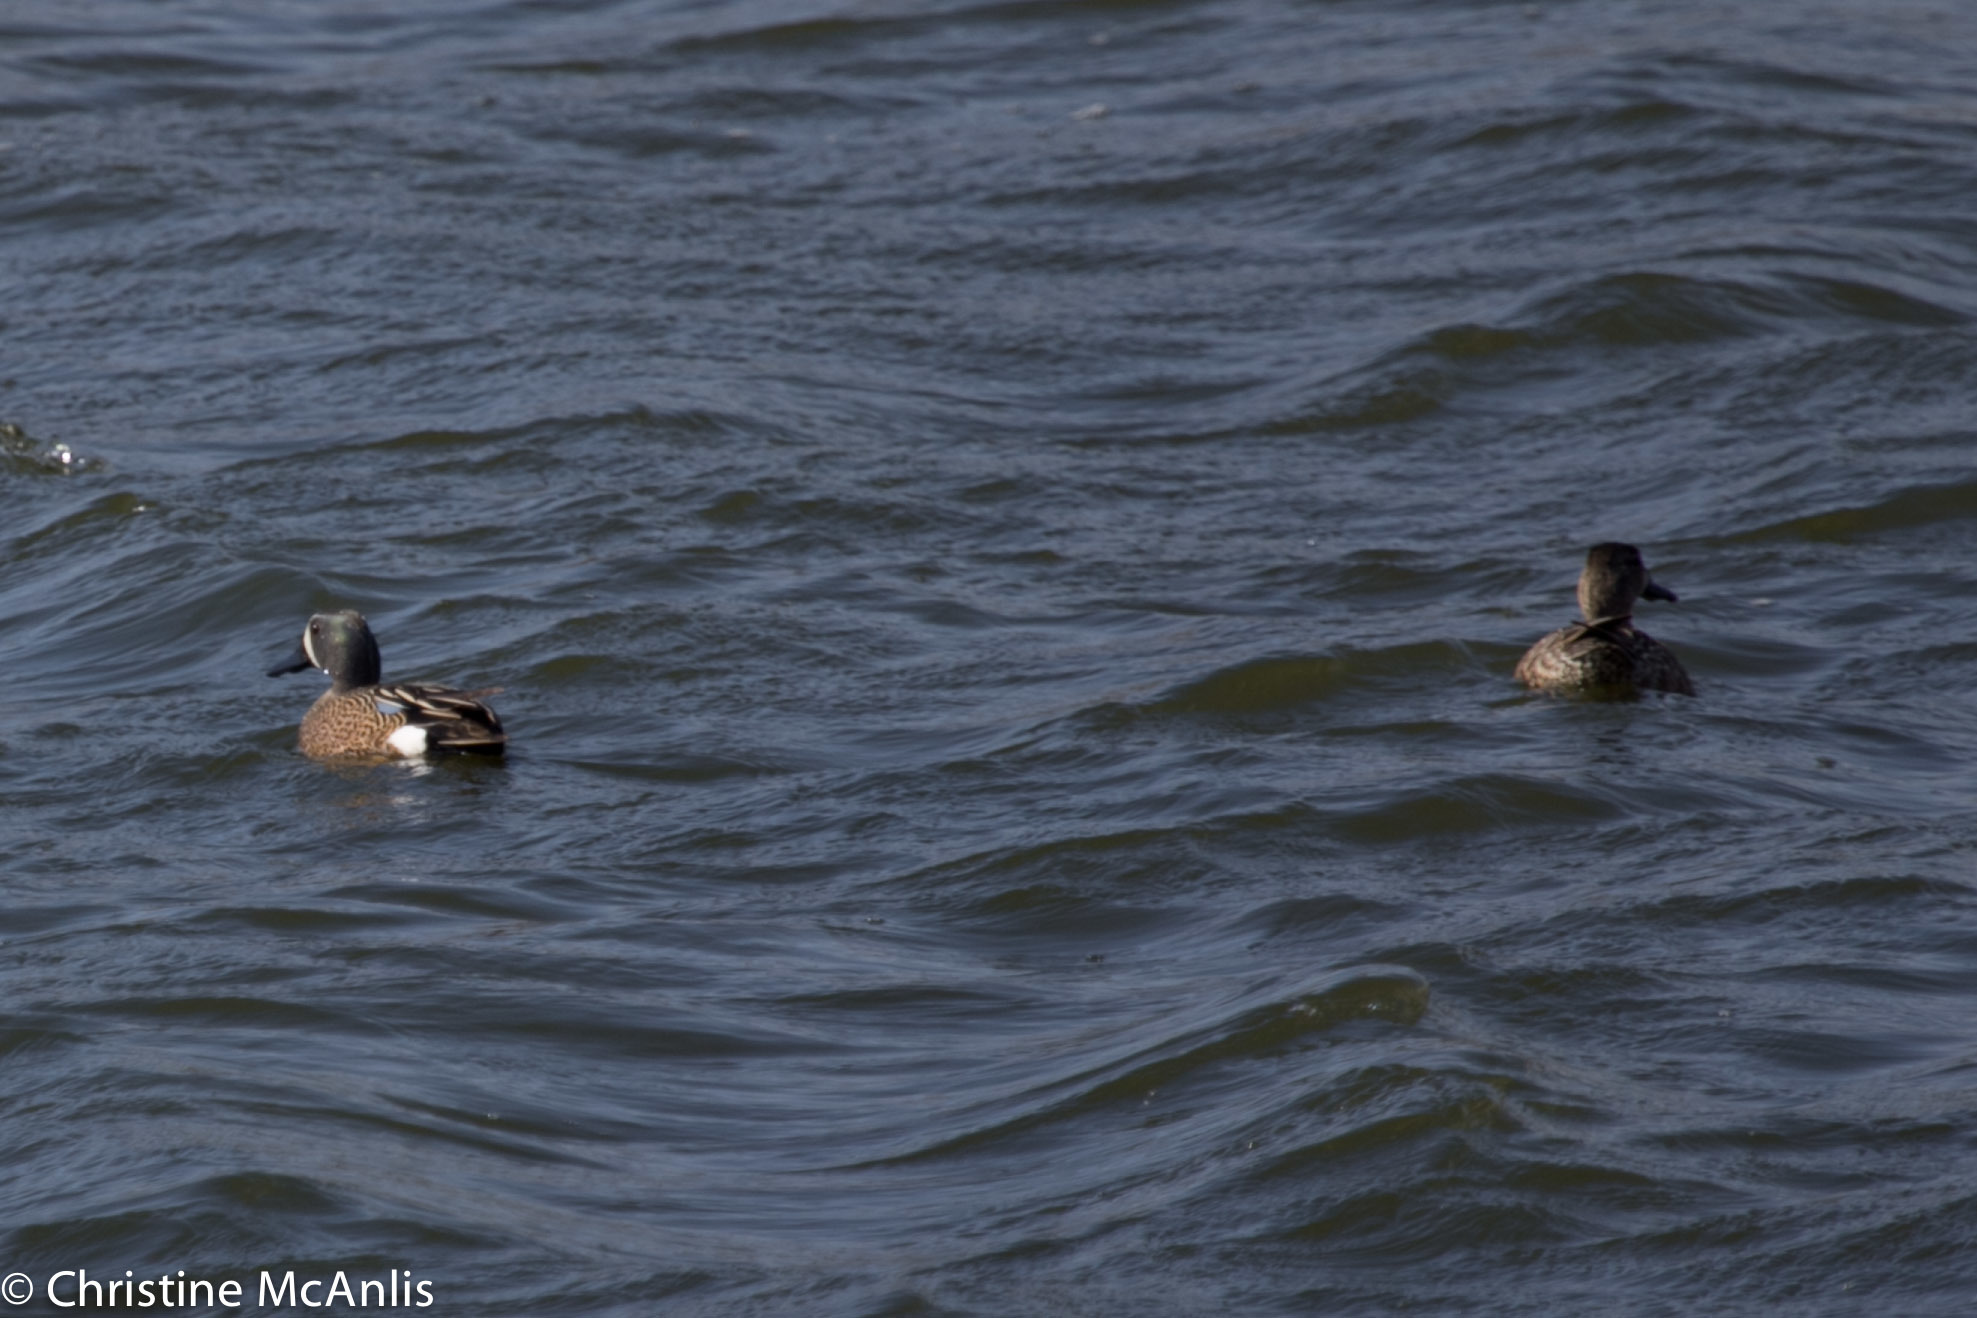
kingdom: Animalia
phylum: Chordata
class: Aves
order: Anseriformes
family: Anatidae
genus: Spatula
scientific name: Spatula discors
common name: Blue-winged teal
